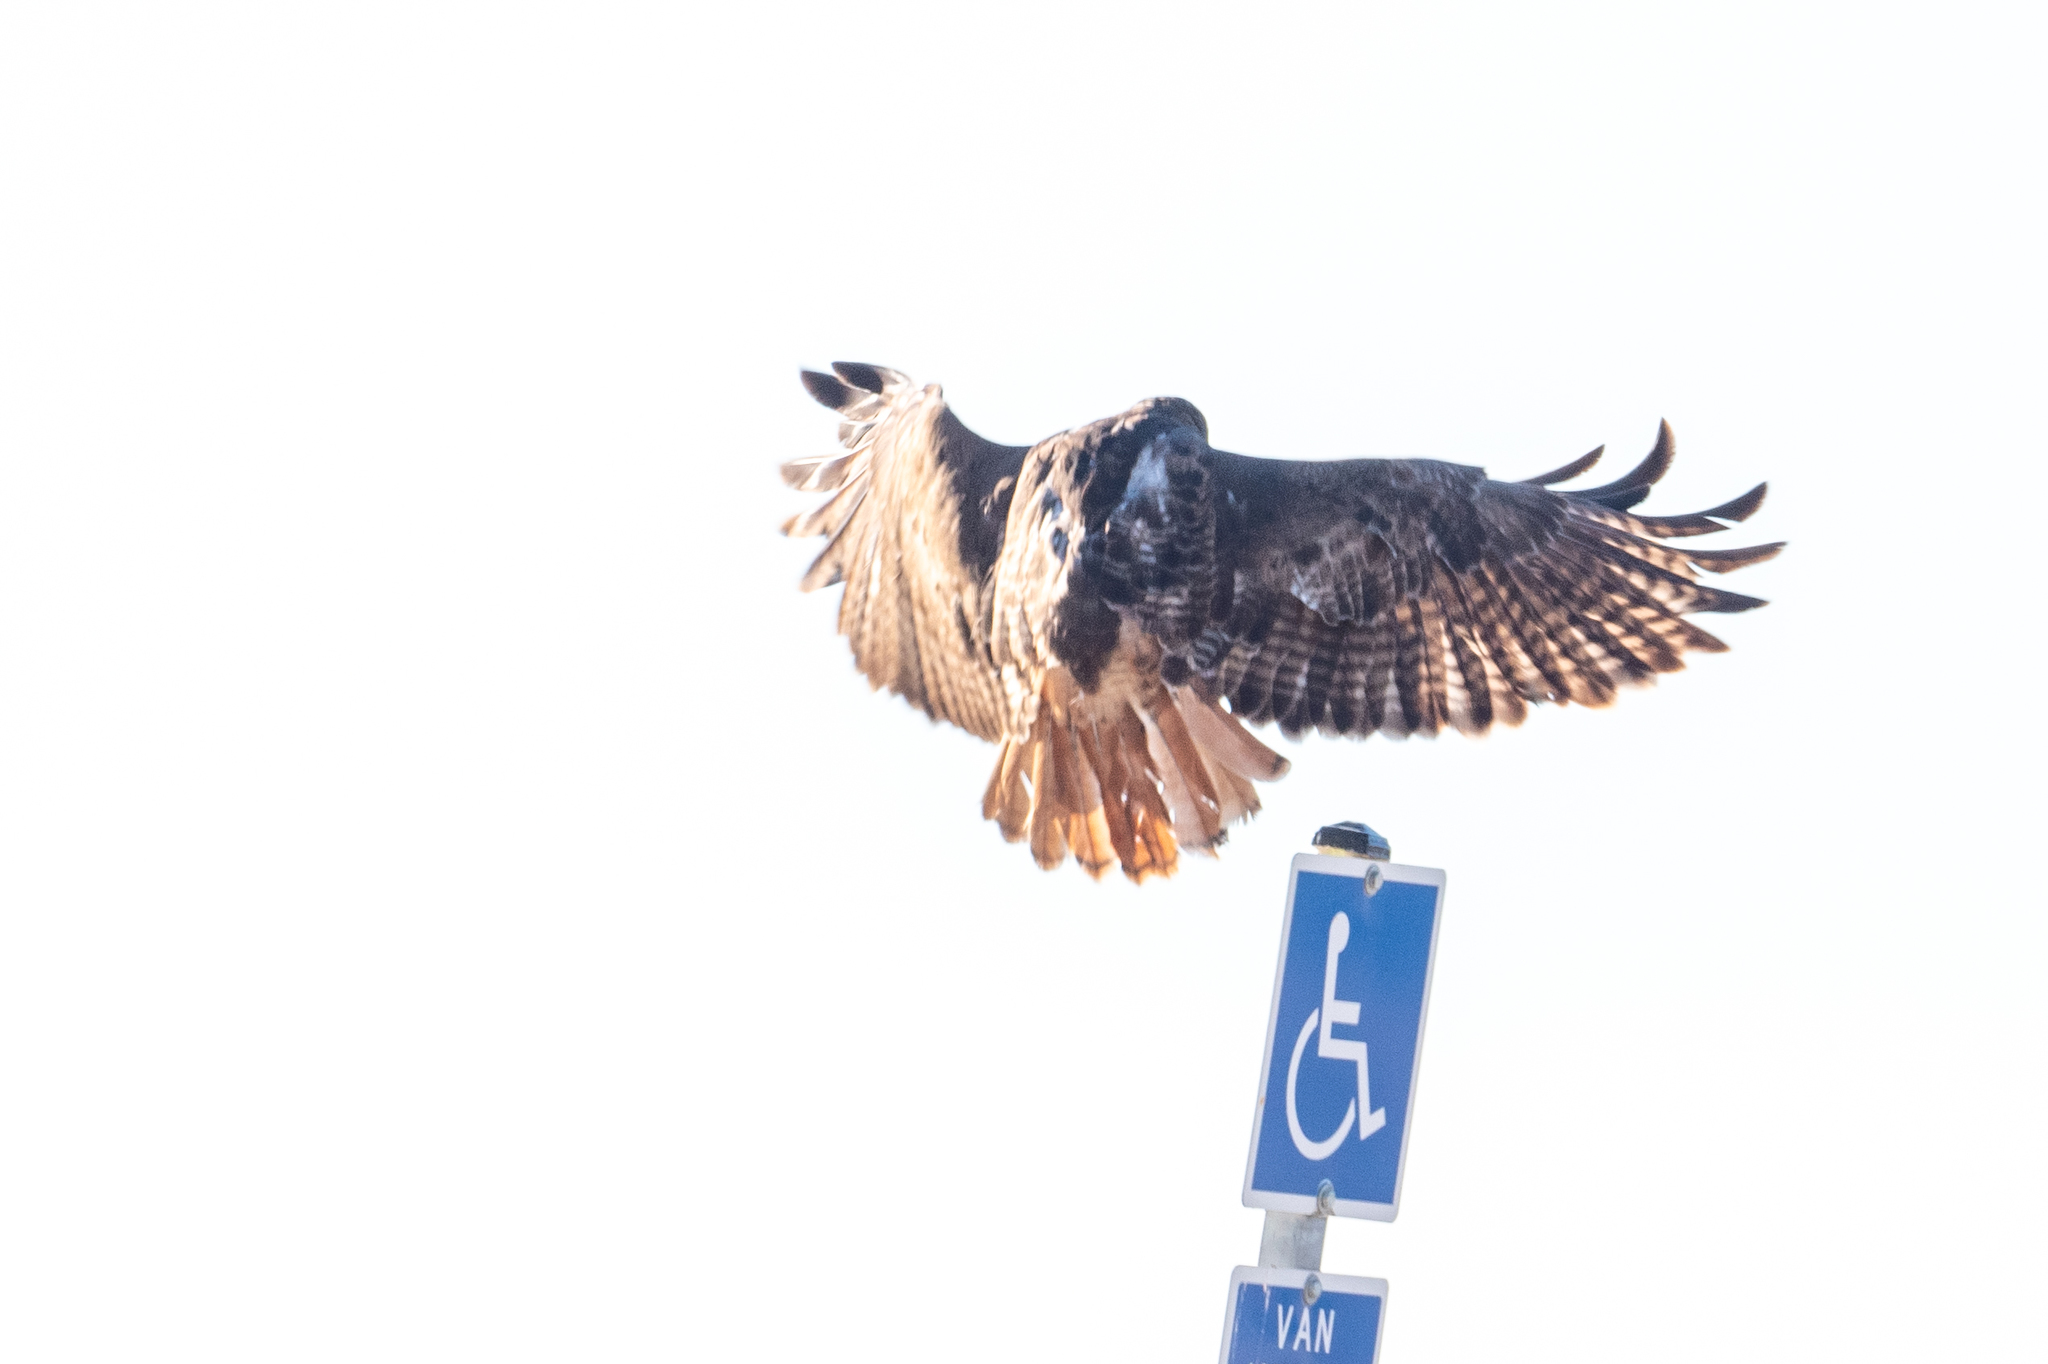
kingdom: Animalia
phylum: Chordata
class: Aves
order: Accipitriformes
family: Accipitridae
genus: Buteo
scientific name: Buteo jamaicensis
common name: Red-tailed hawk
